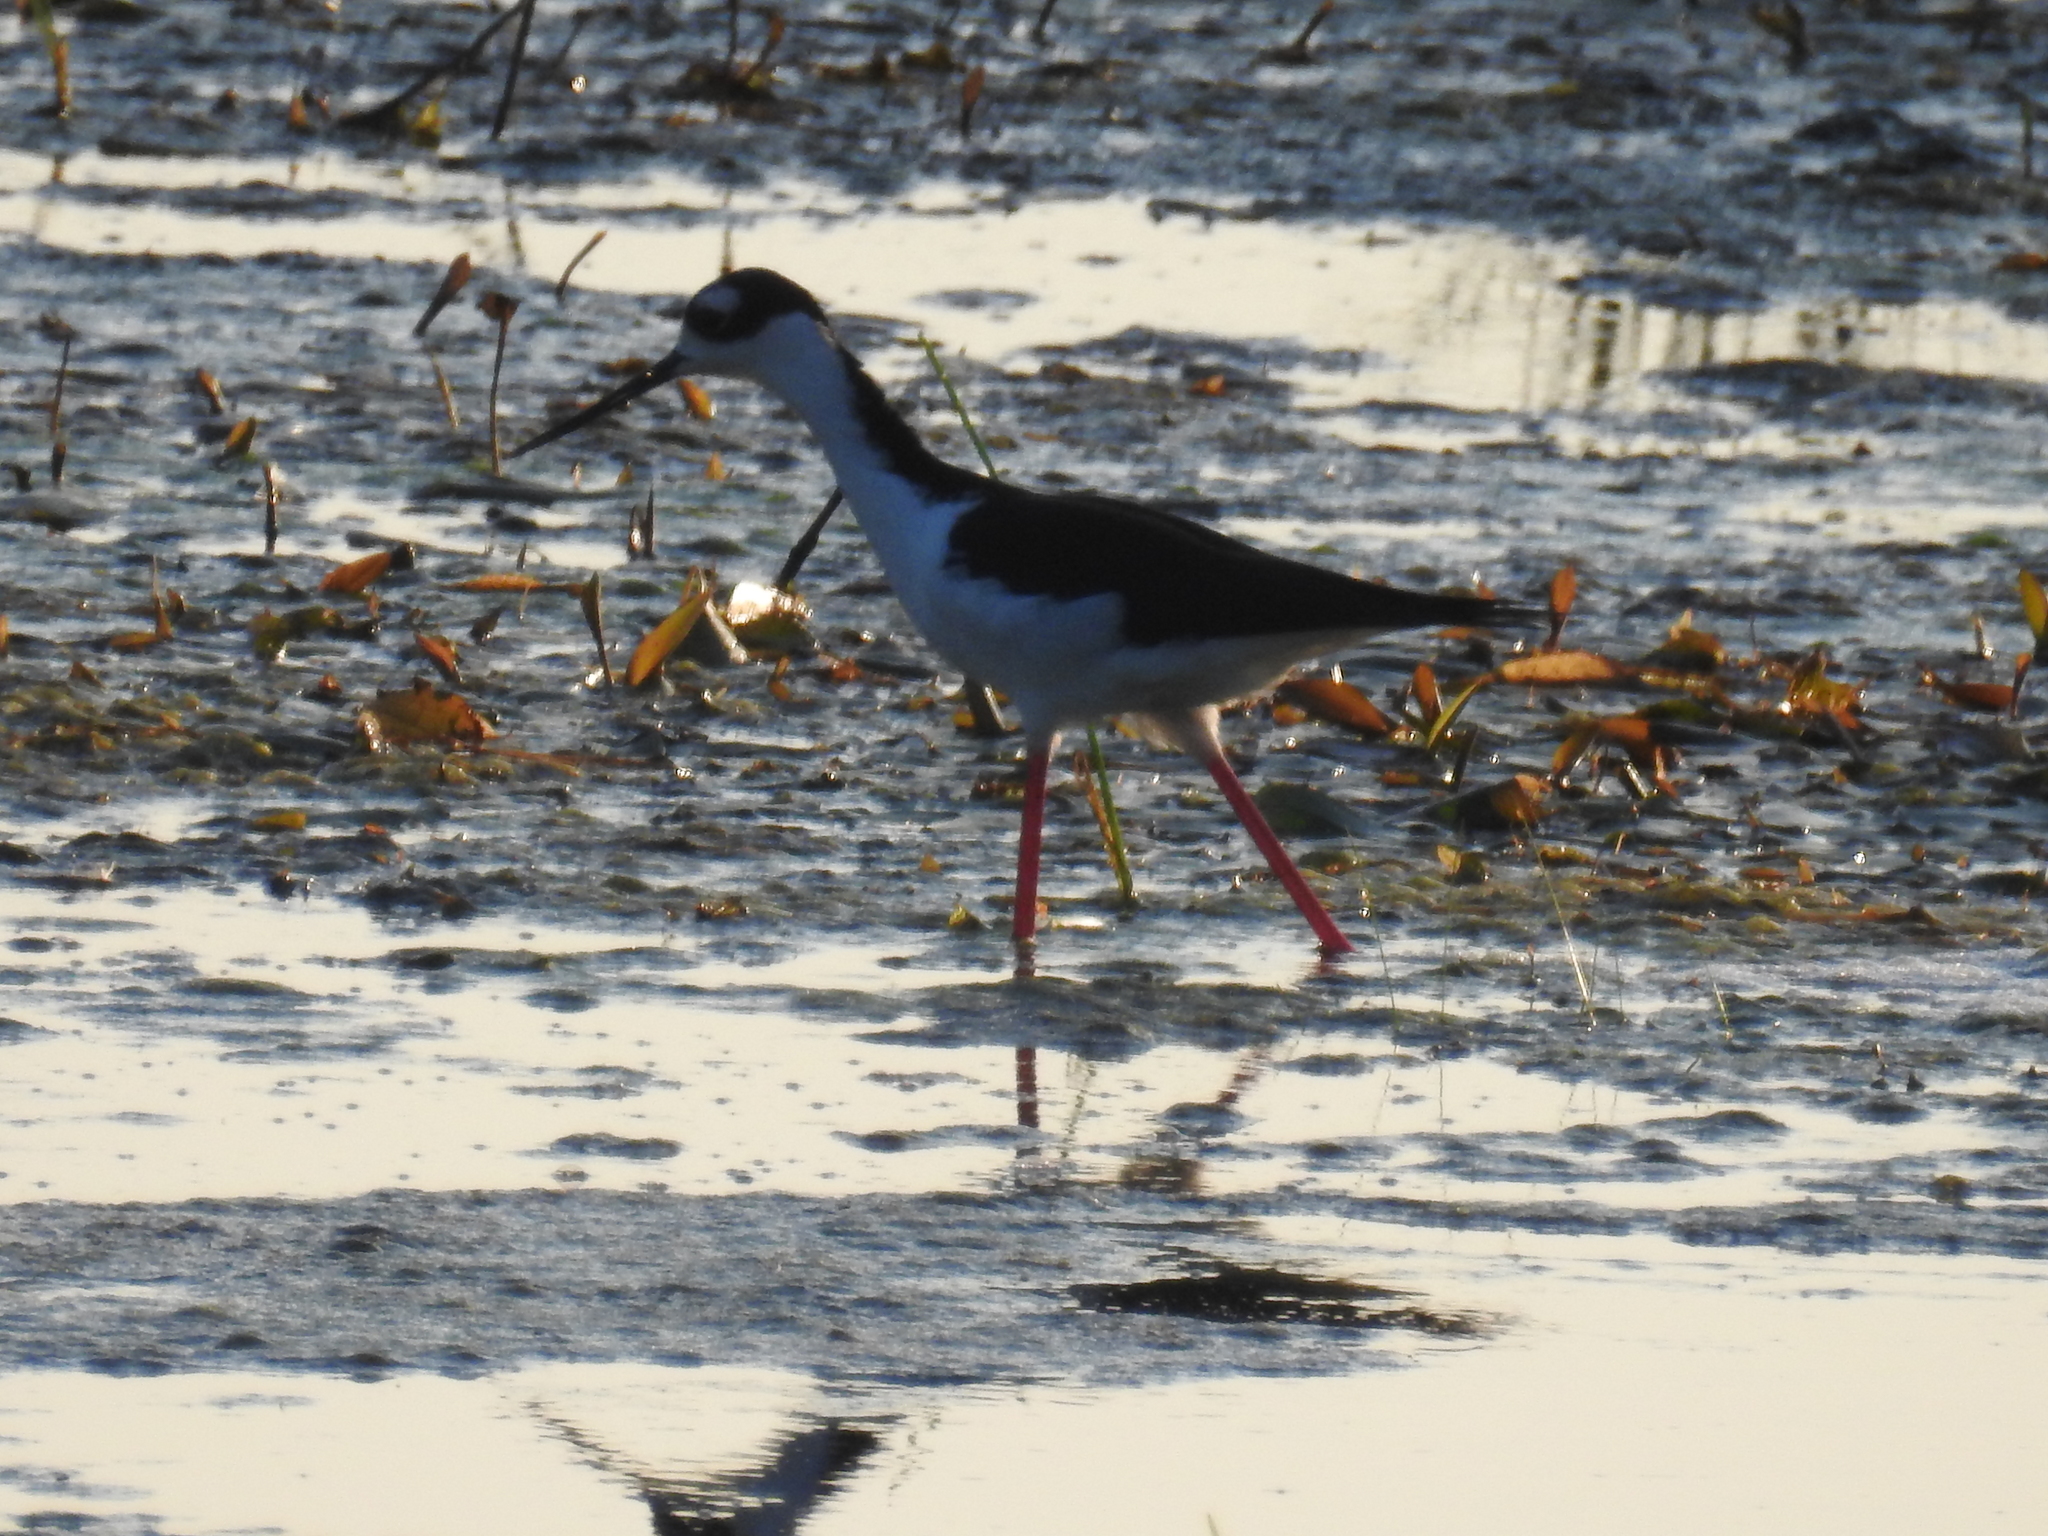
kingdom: Animalia
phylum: Chordata
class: Aves
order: Charadriiformes
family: Recurvirostridae
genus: Himantopus
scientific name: Himantopus mexicanus
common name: Black-necked stilt
